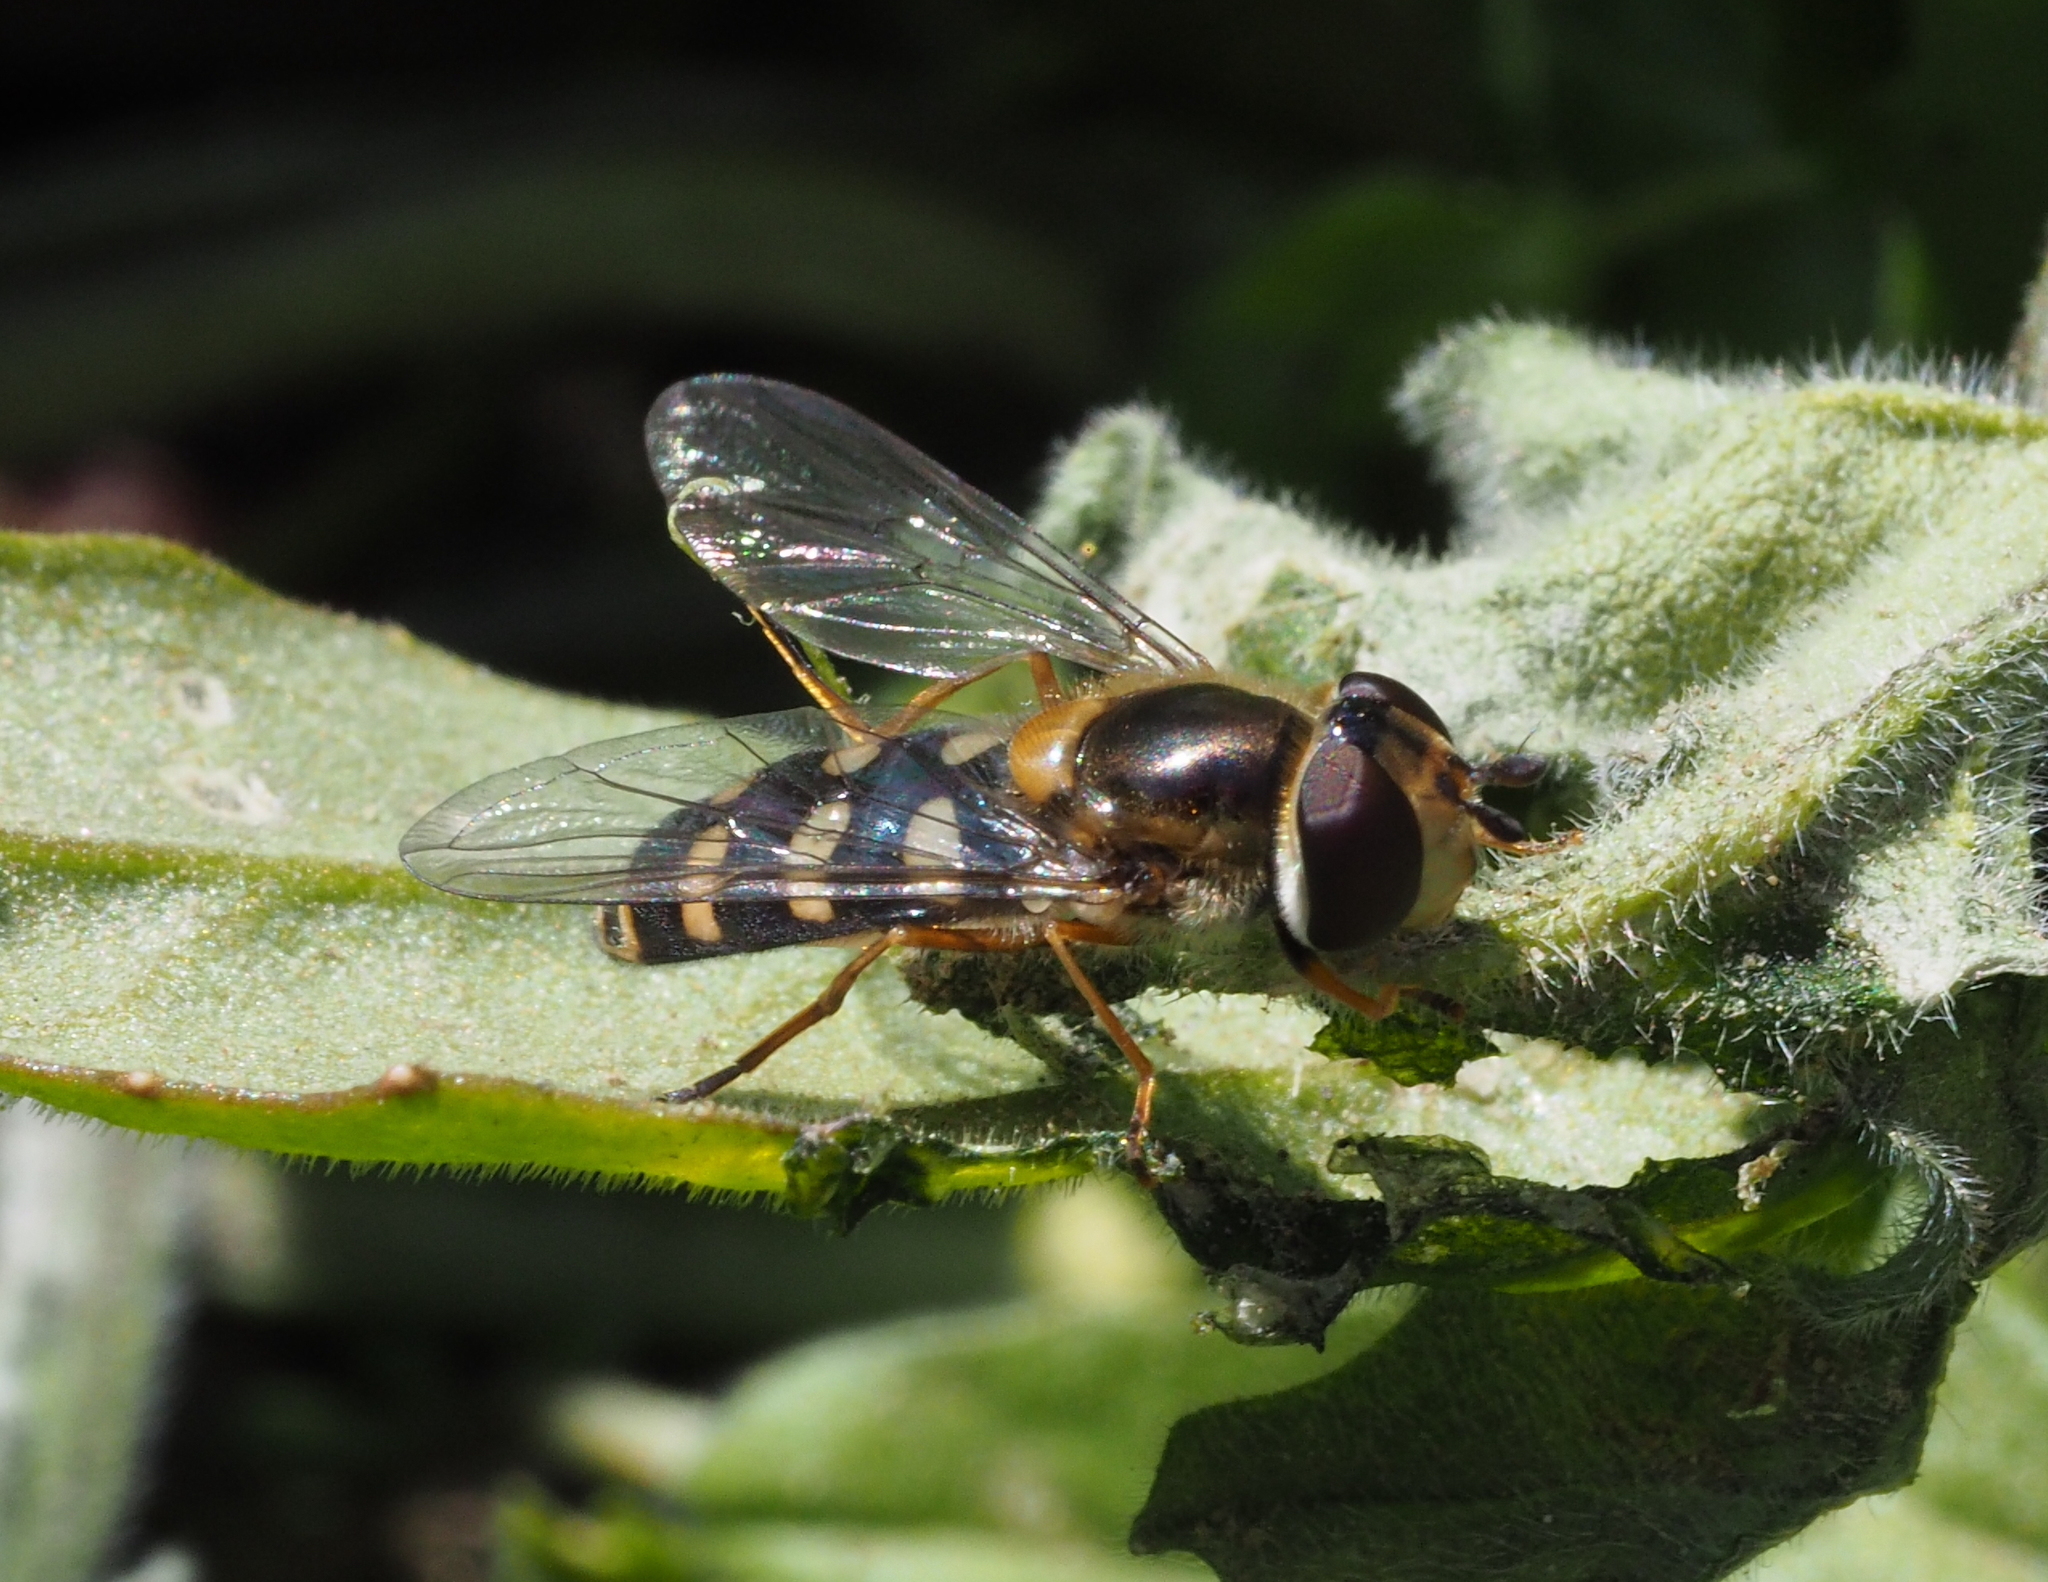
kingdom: Animalia
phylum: Arthropoda
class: Insecta
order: Diptera
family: Syrphidae
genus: Eupeodes
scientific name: Eupeodes luniger
